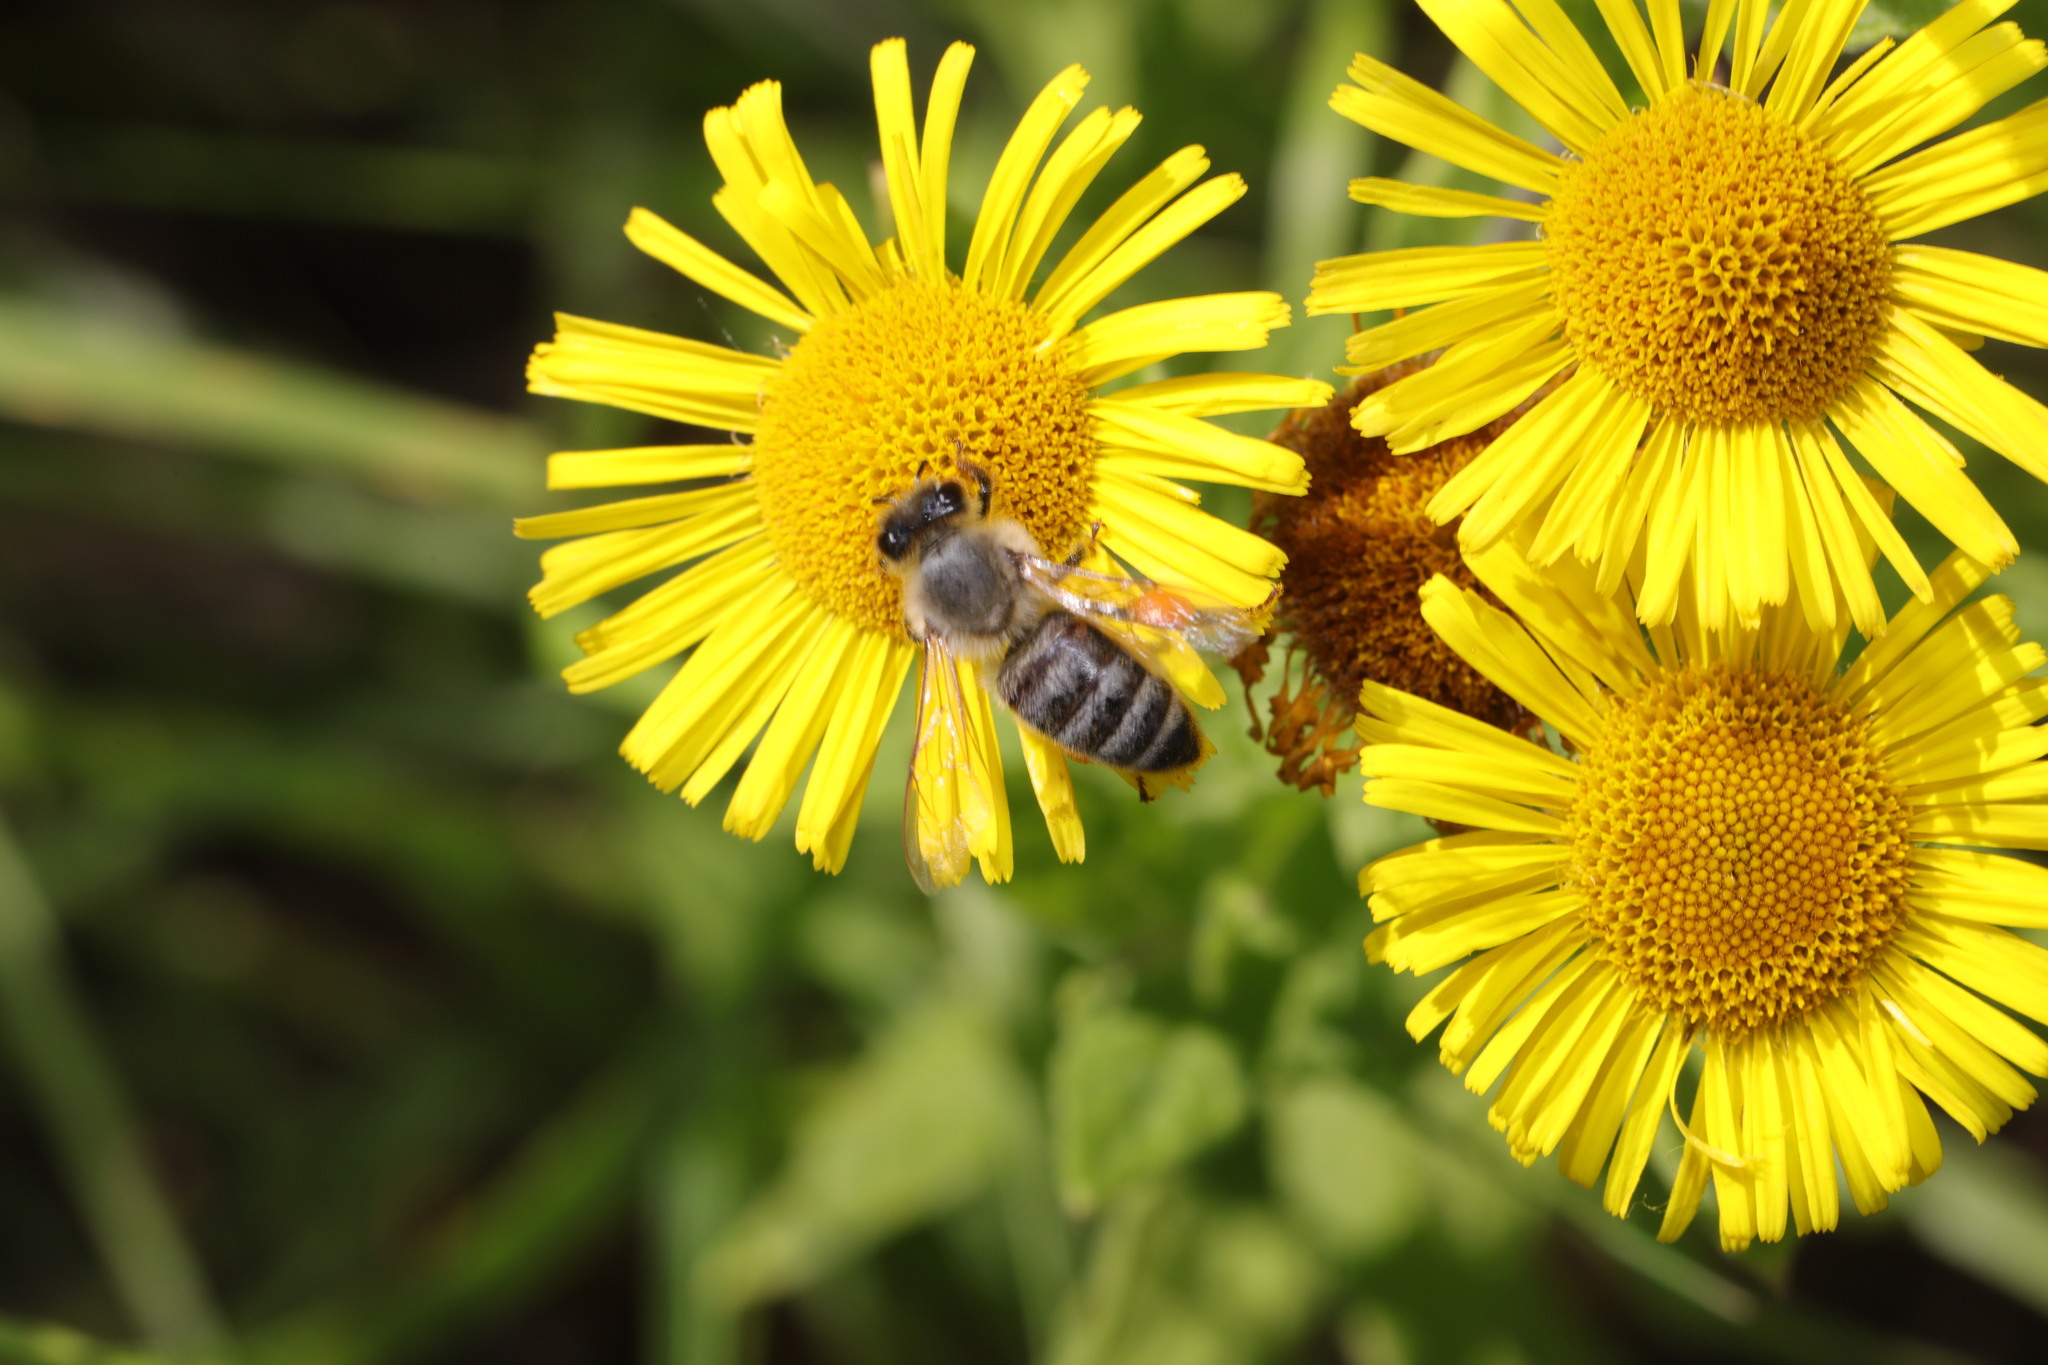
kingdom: Animalia
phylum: Arthropoda
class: Insecta
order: Hymenoptera
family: Apidae
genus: Apis
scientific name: Apis mellifera
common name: Honey bee
